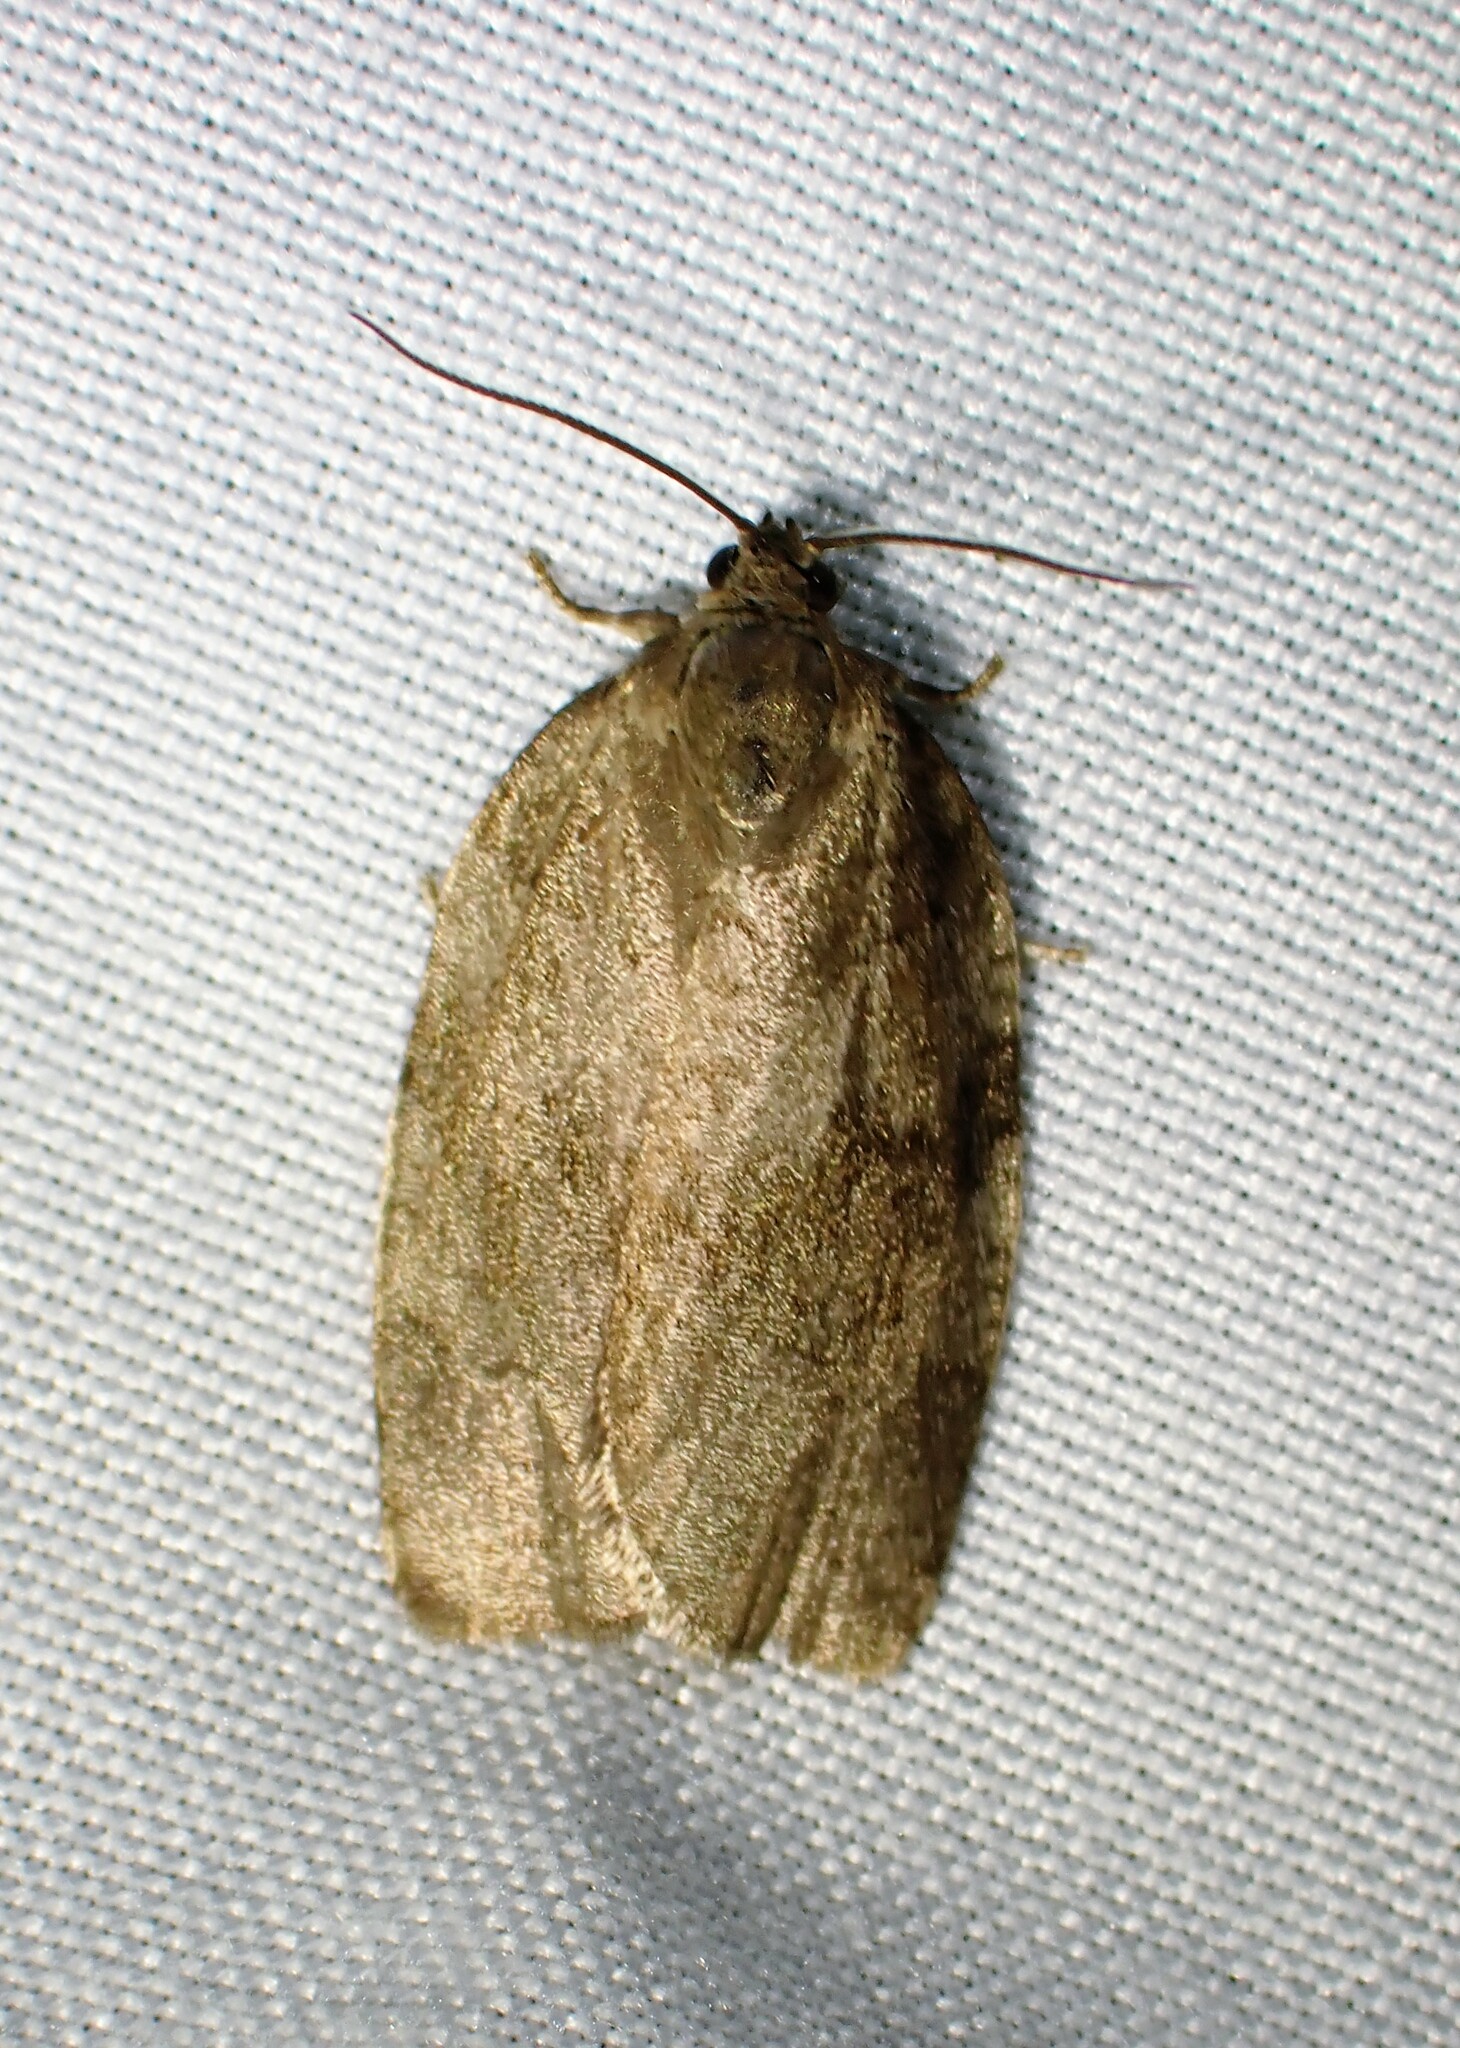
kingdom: Animalia
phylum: Arthropoda
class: Insecta
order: Lepidoptera
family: Tortricidae
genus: Choristoneura
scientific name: Choristoneura conflictana
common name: Large aspen tortrix
